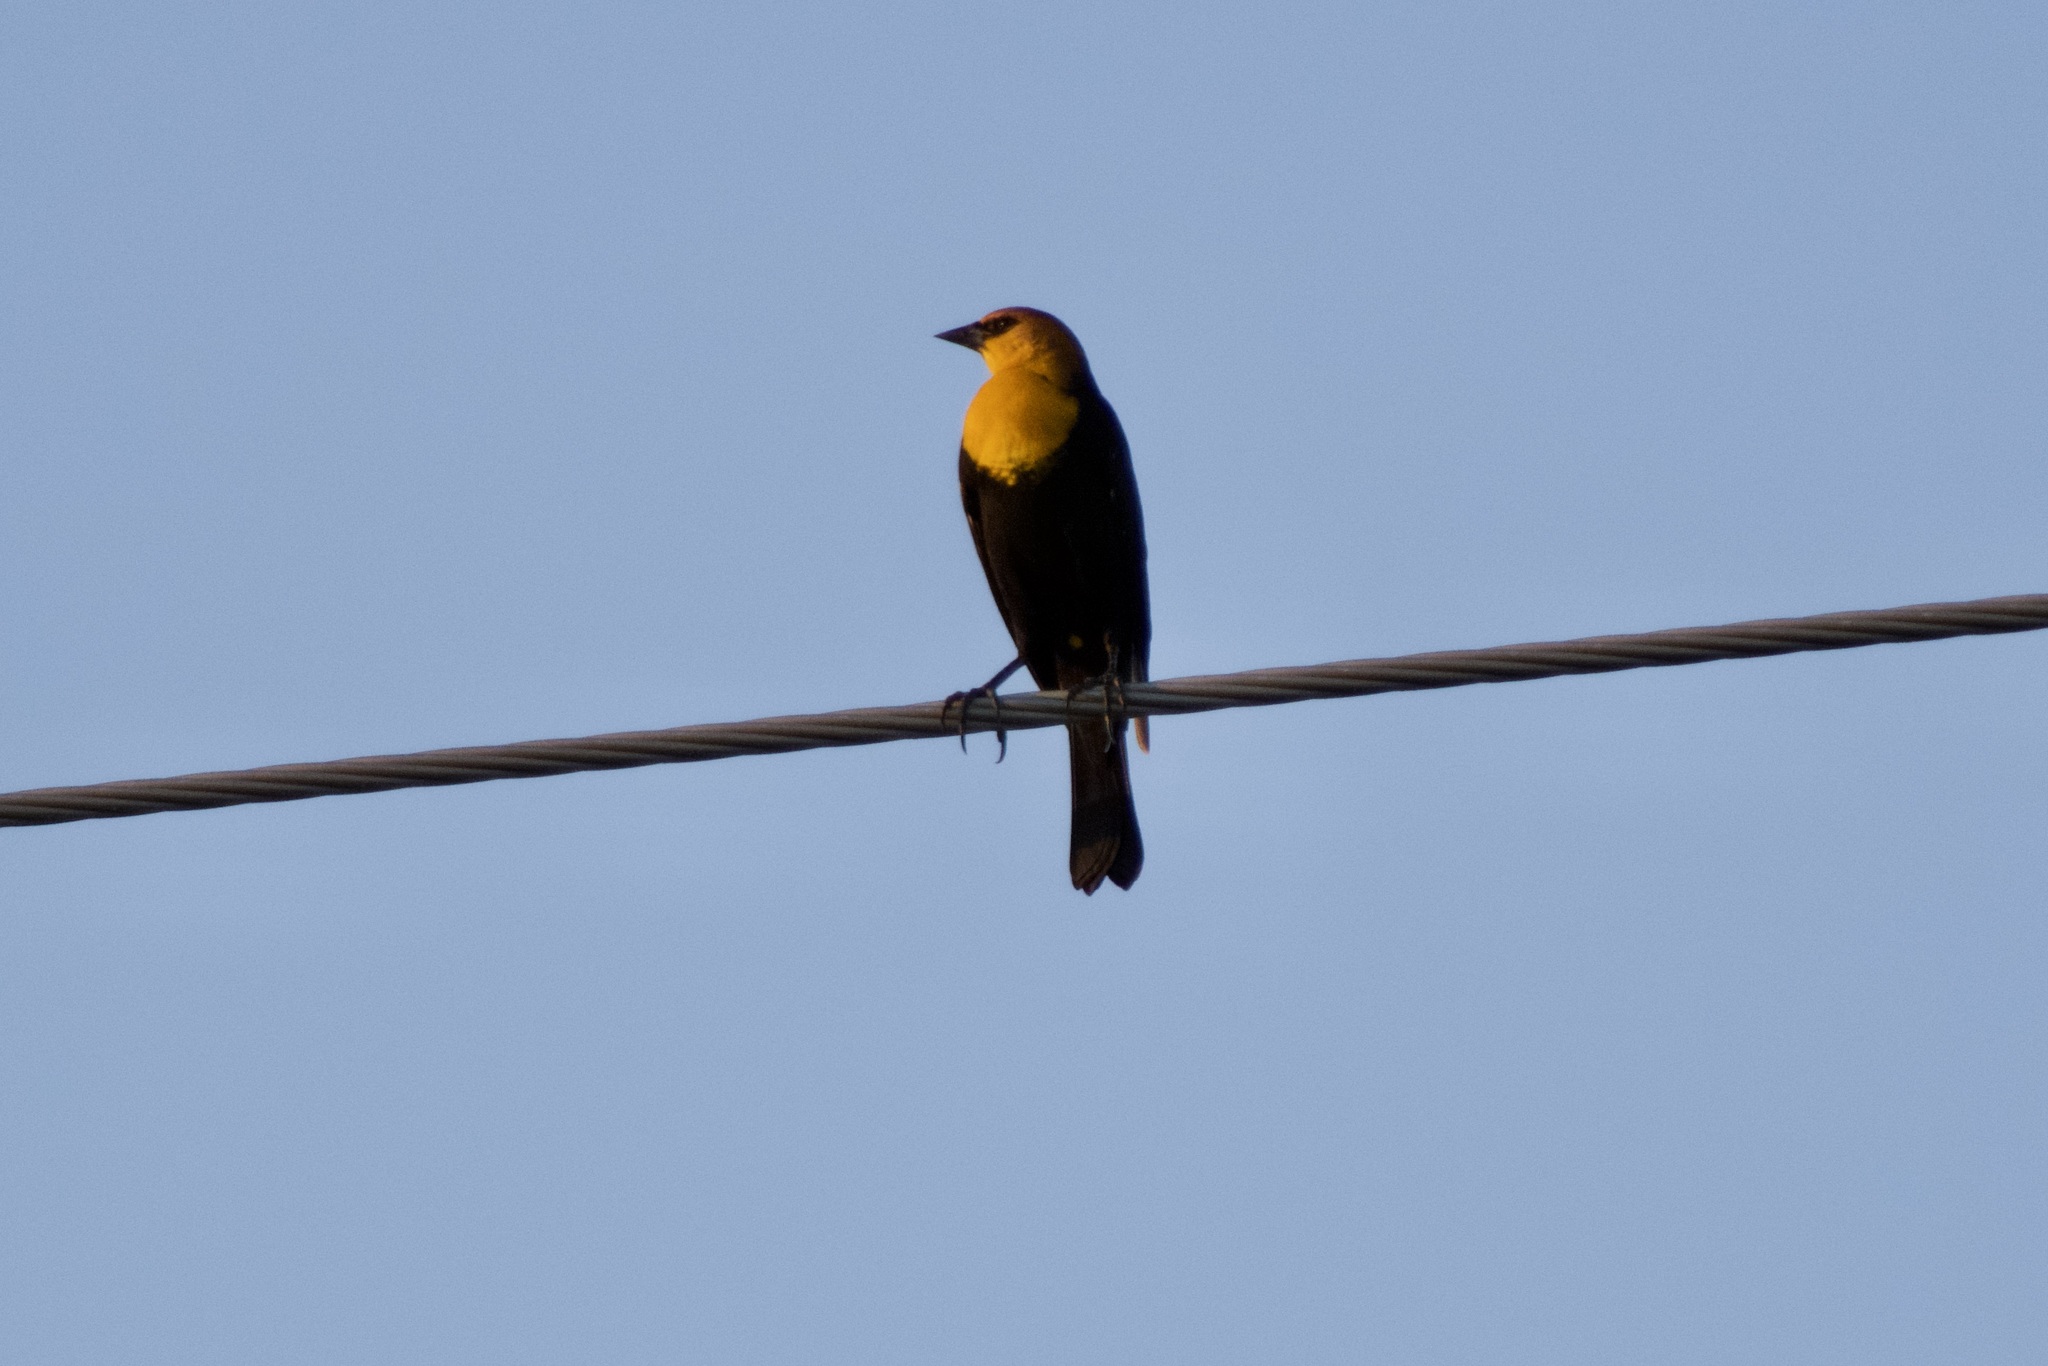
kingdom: Animalia
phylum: Chordata
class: Aves
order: Passeriformes
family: Icteridae
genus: Xanthocephalus
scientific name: Xanthocephalus xanthocephalus
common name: Yellow-headed blackbird
